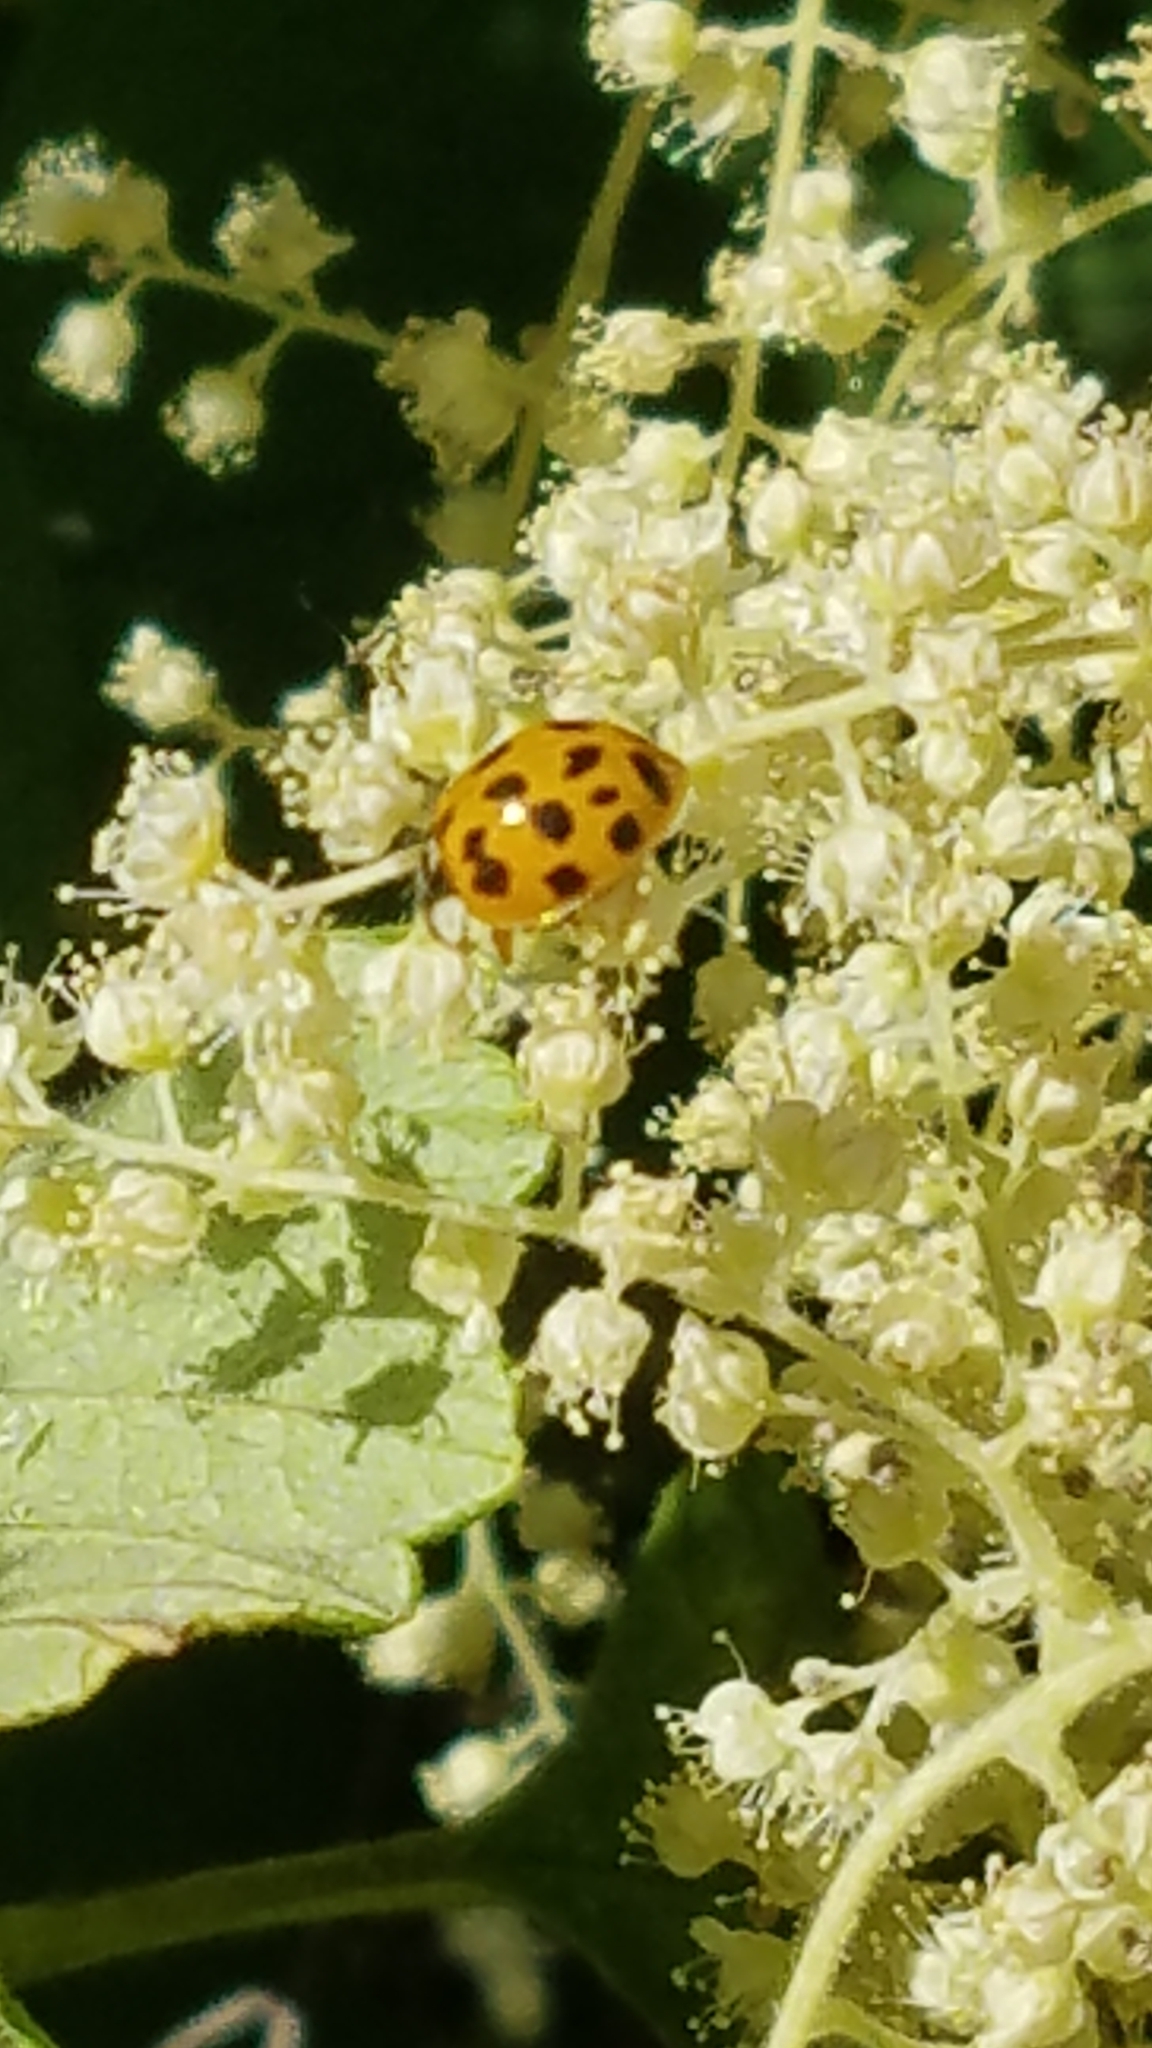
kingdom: Animalia
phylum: Arthropoda
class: Insecta
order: Coleoptera
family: Coccinellidae
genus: Harmonia
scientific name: Harmonia axyridis
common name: Harlequin ladybird
